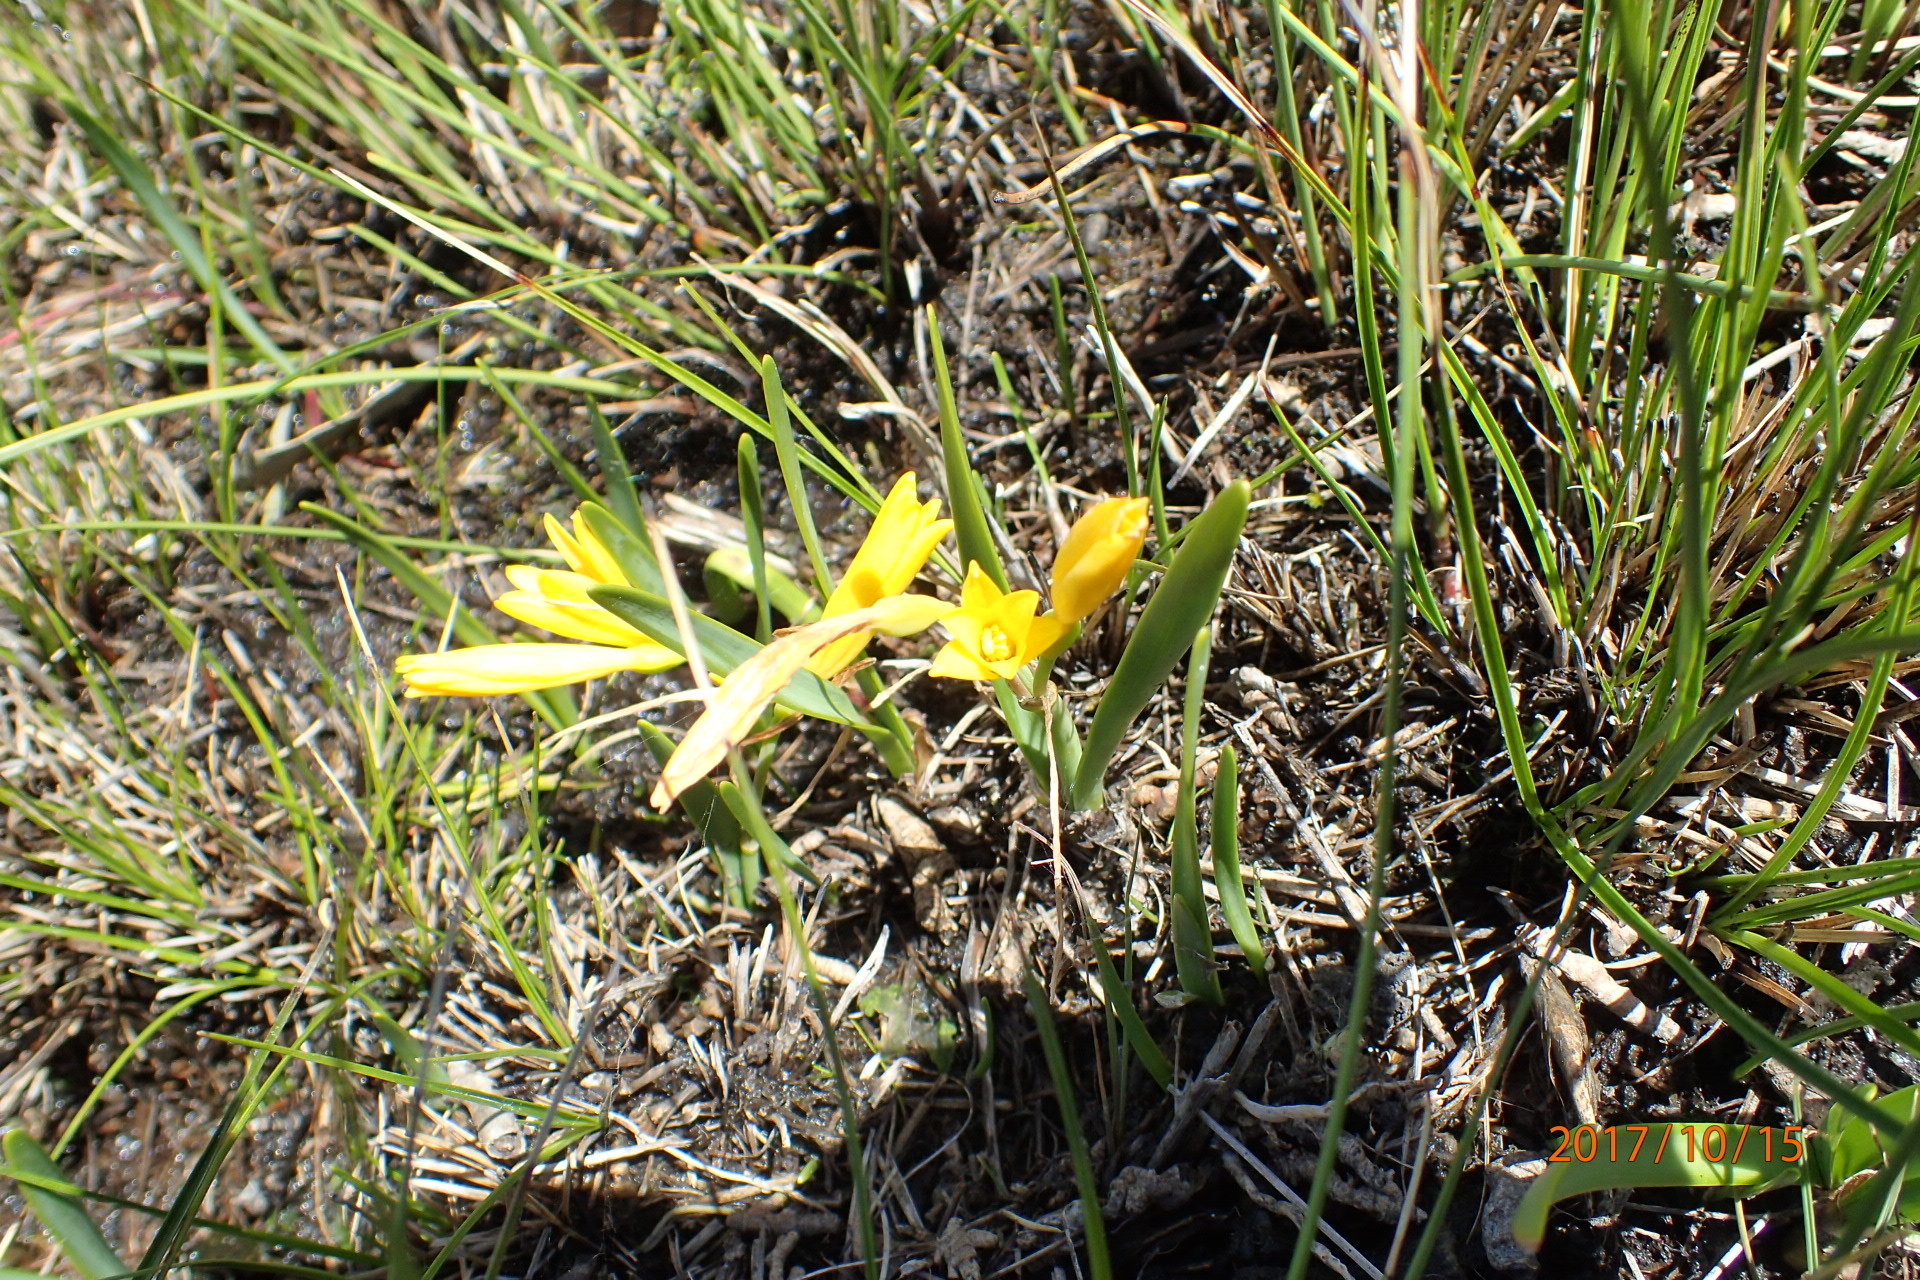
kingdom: Plantae
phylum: Tracheophyta
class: Liliopsida
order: Asparagales
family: Amaryllidaceae
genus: Cyrtanthus
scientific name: Cyrtanthus breviflorus
